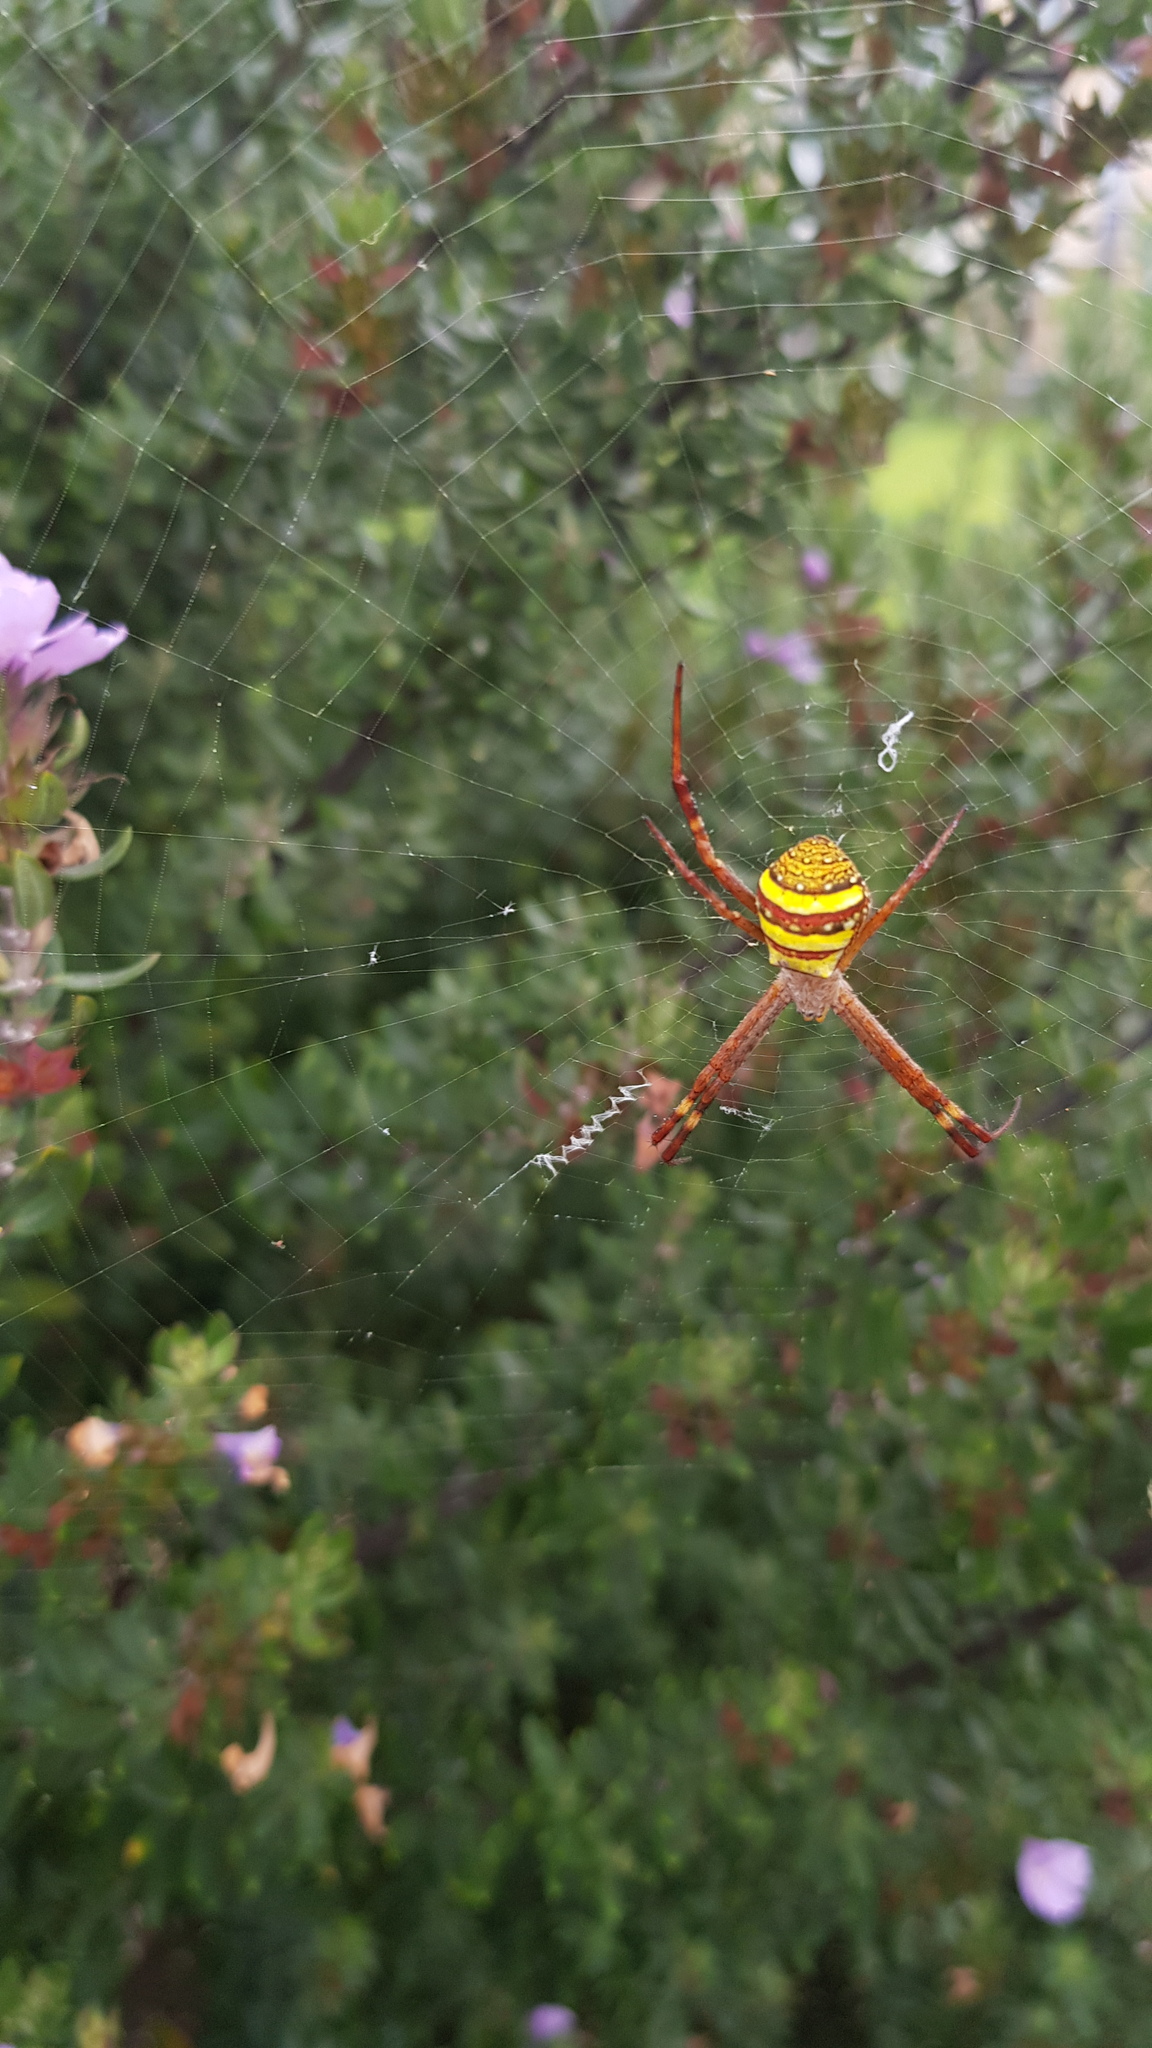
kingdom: Animalia
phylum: Arthropoda
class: Arachnida
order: Araneae
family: Araneidae
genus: Argiope
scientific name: Argiope keyserlingi
